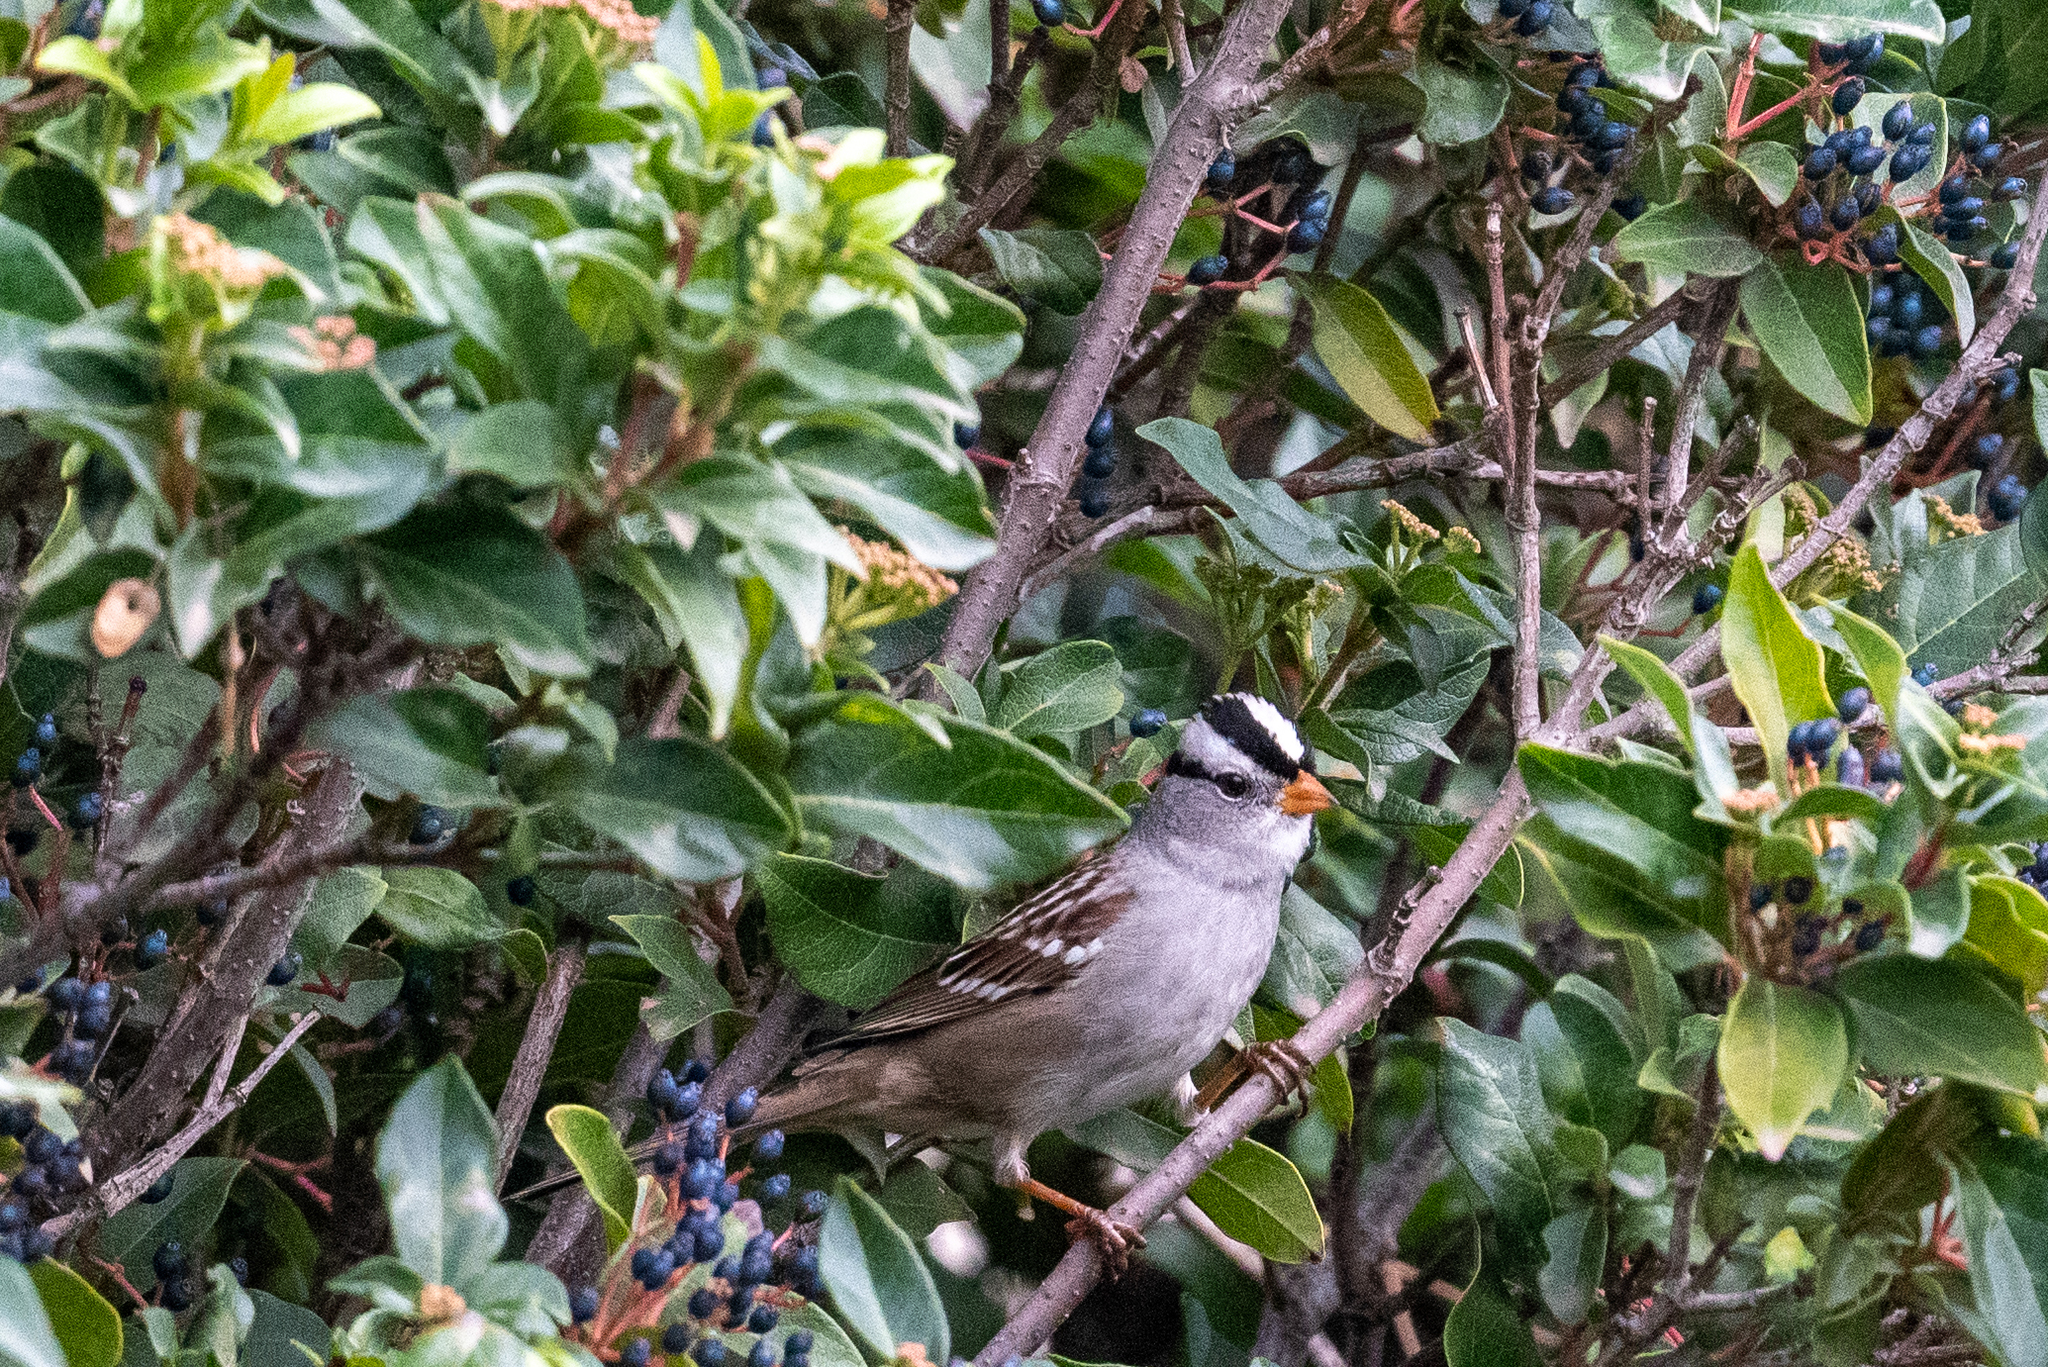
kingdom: Animalia
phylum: Chordata
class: Aves
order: Passeriformes
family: Passerellidae
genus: Zonotrichia
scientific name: Zonotrichia leucophrys
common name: White-crowned sparrow
